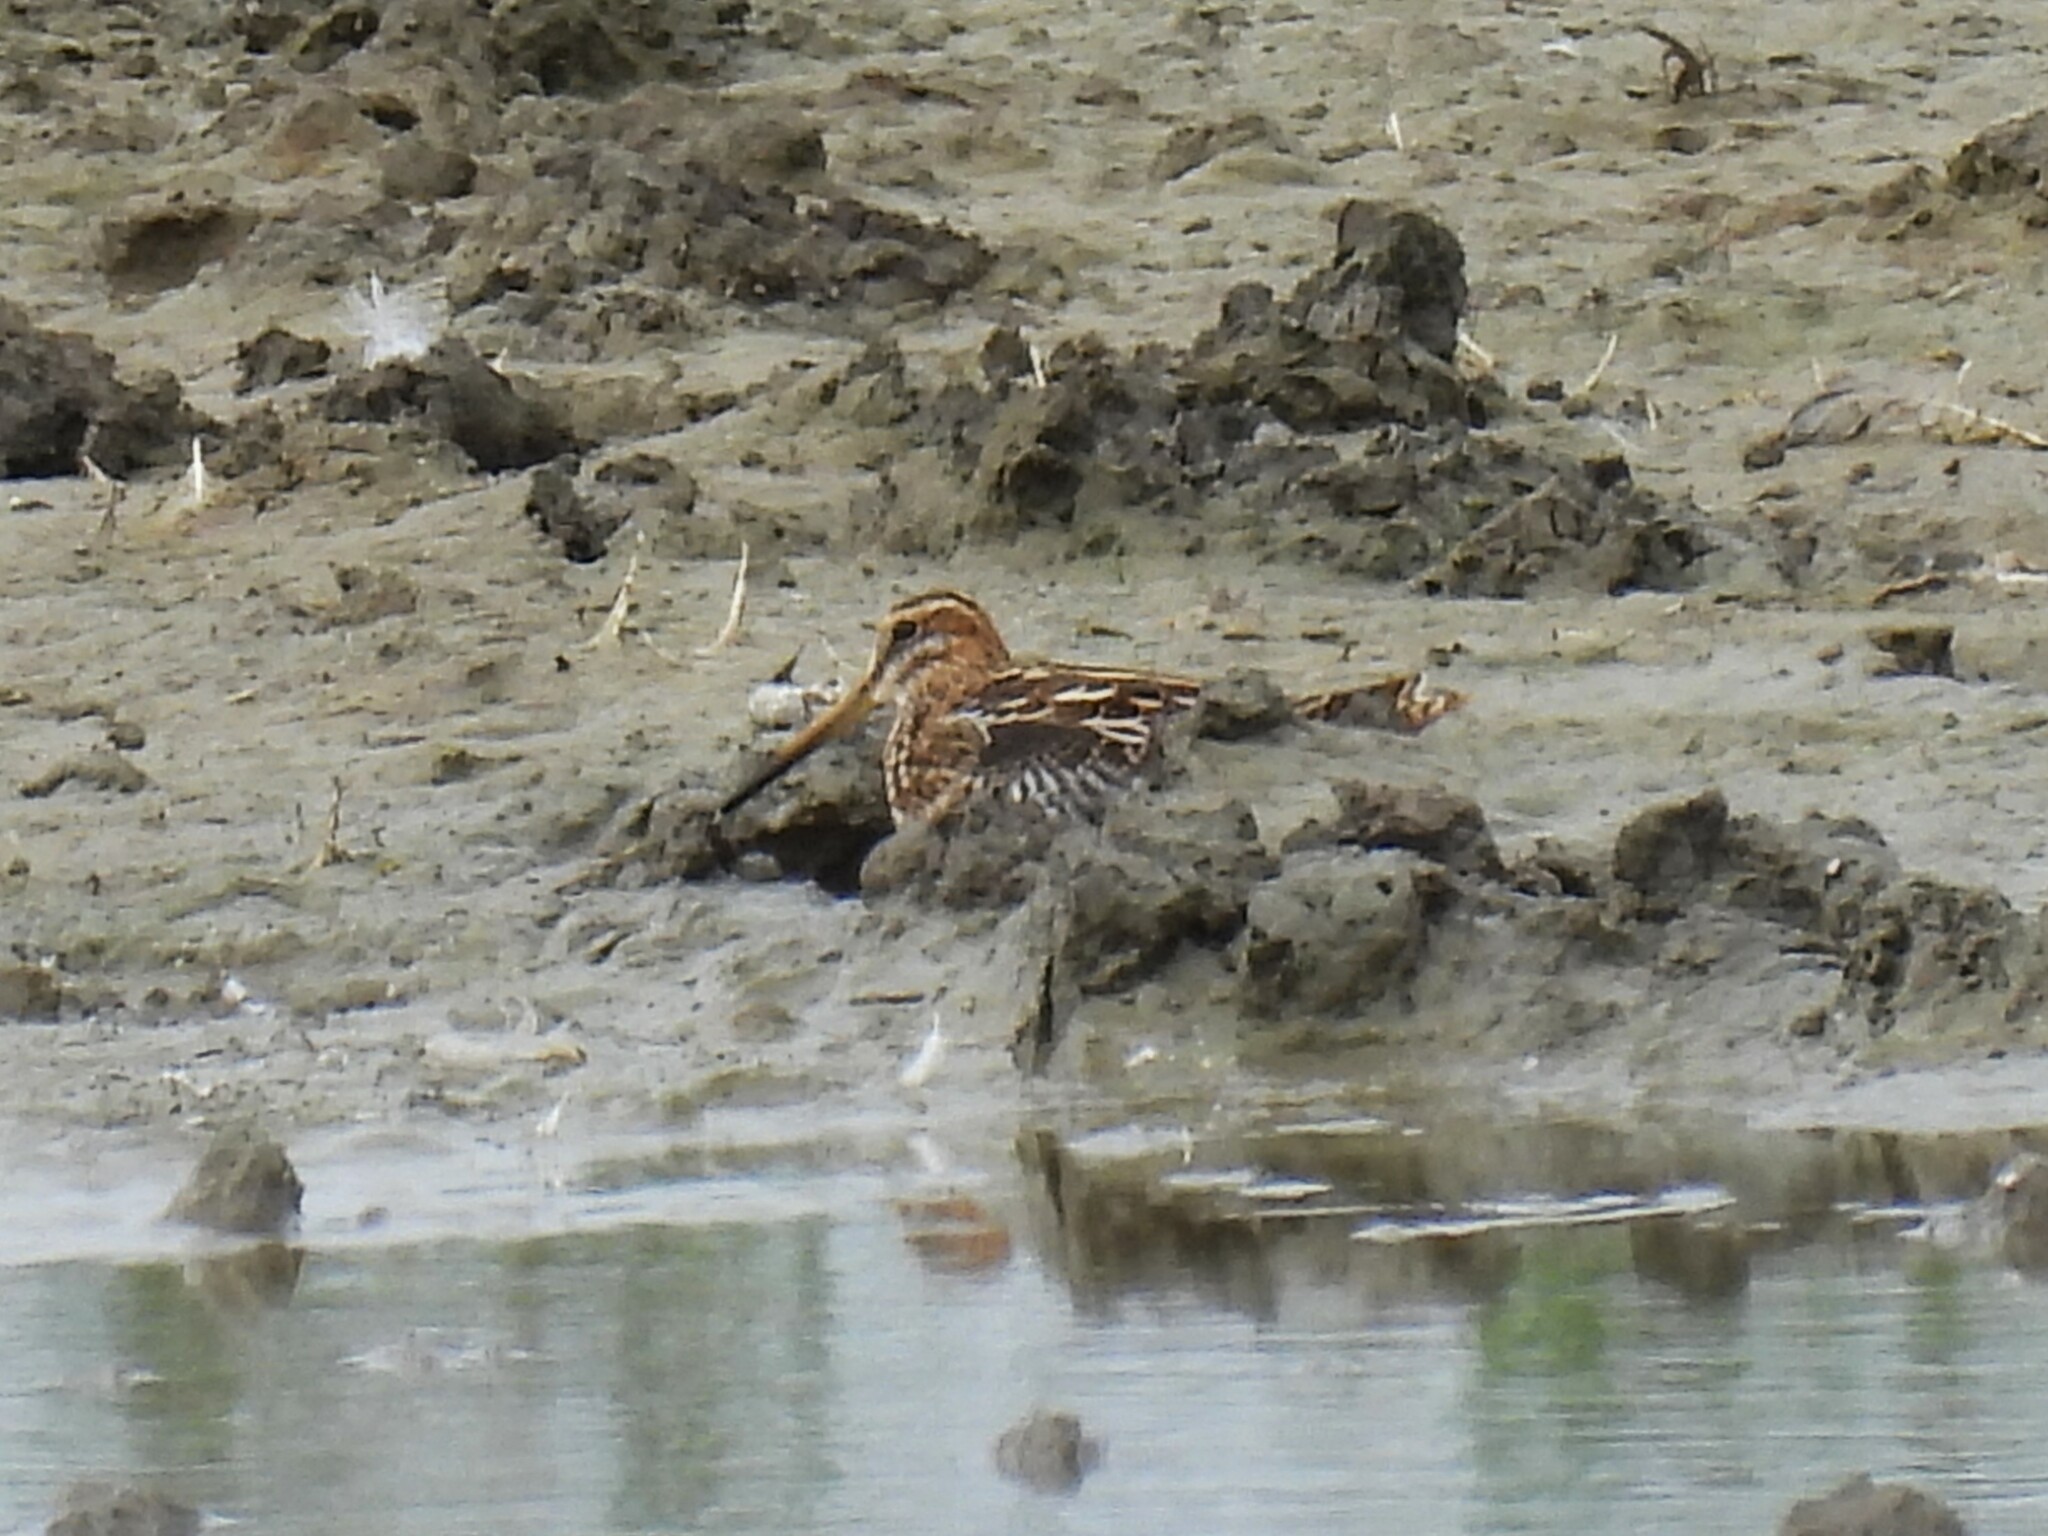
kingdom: Animalia
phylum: Chordata
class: Aves
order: Charadriiformes
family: Scolopacidae
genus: Gallinago
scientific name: Gallinago gallinago
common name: Common snipe
